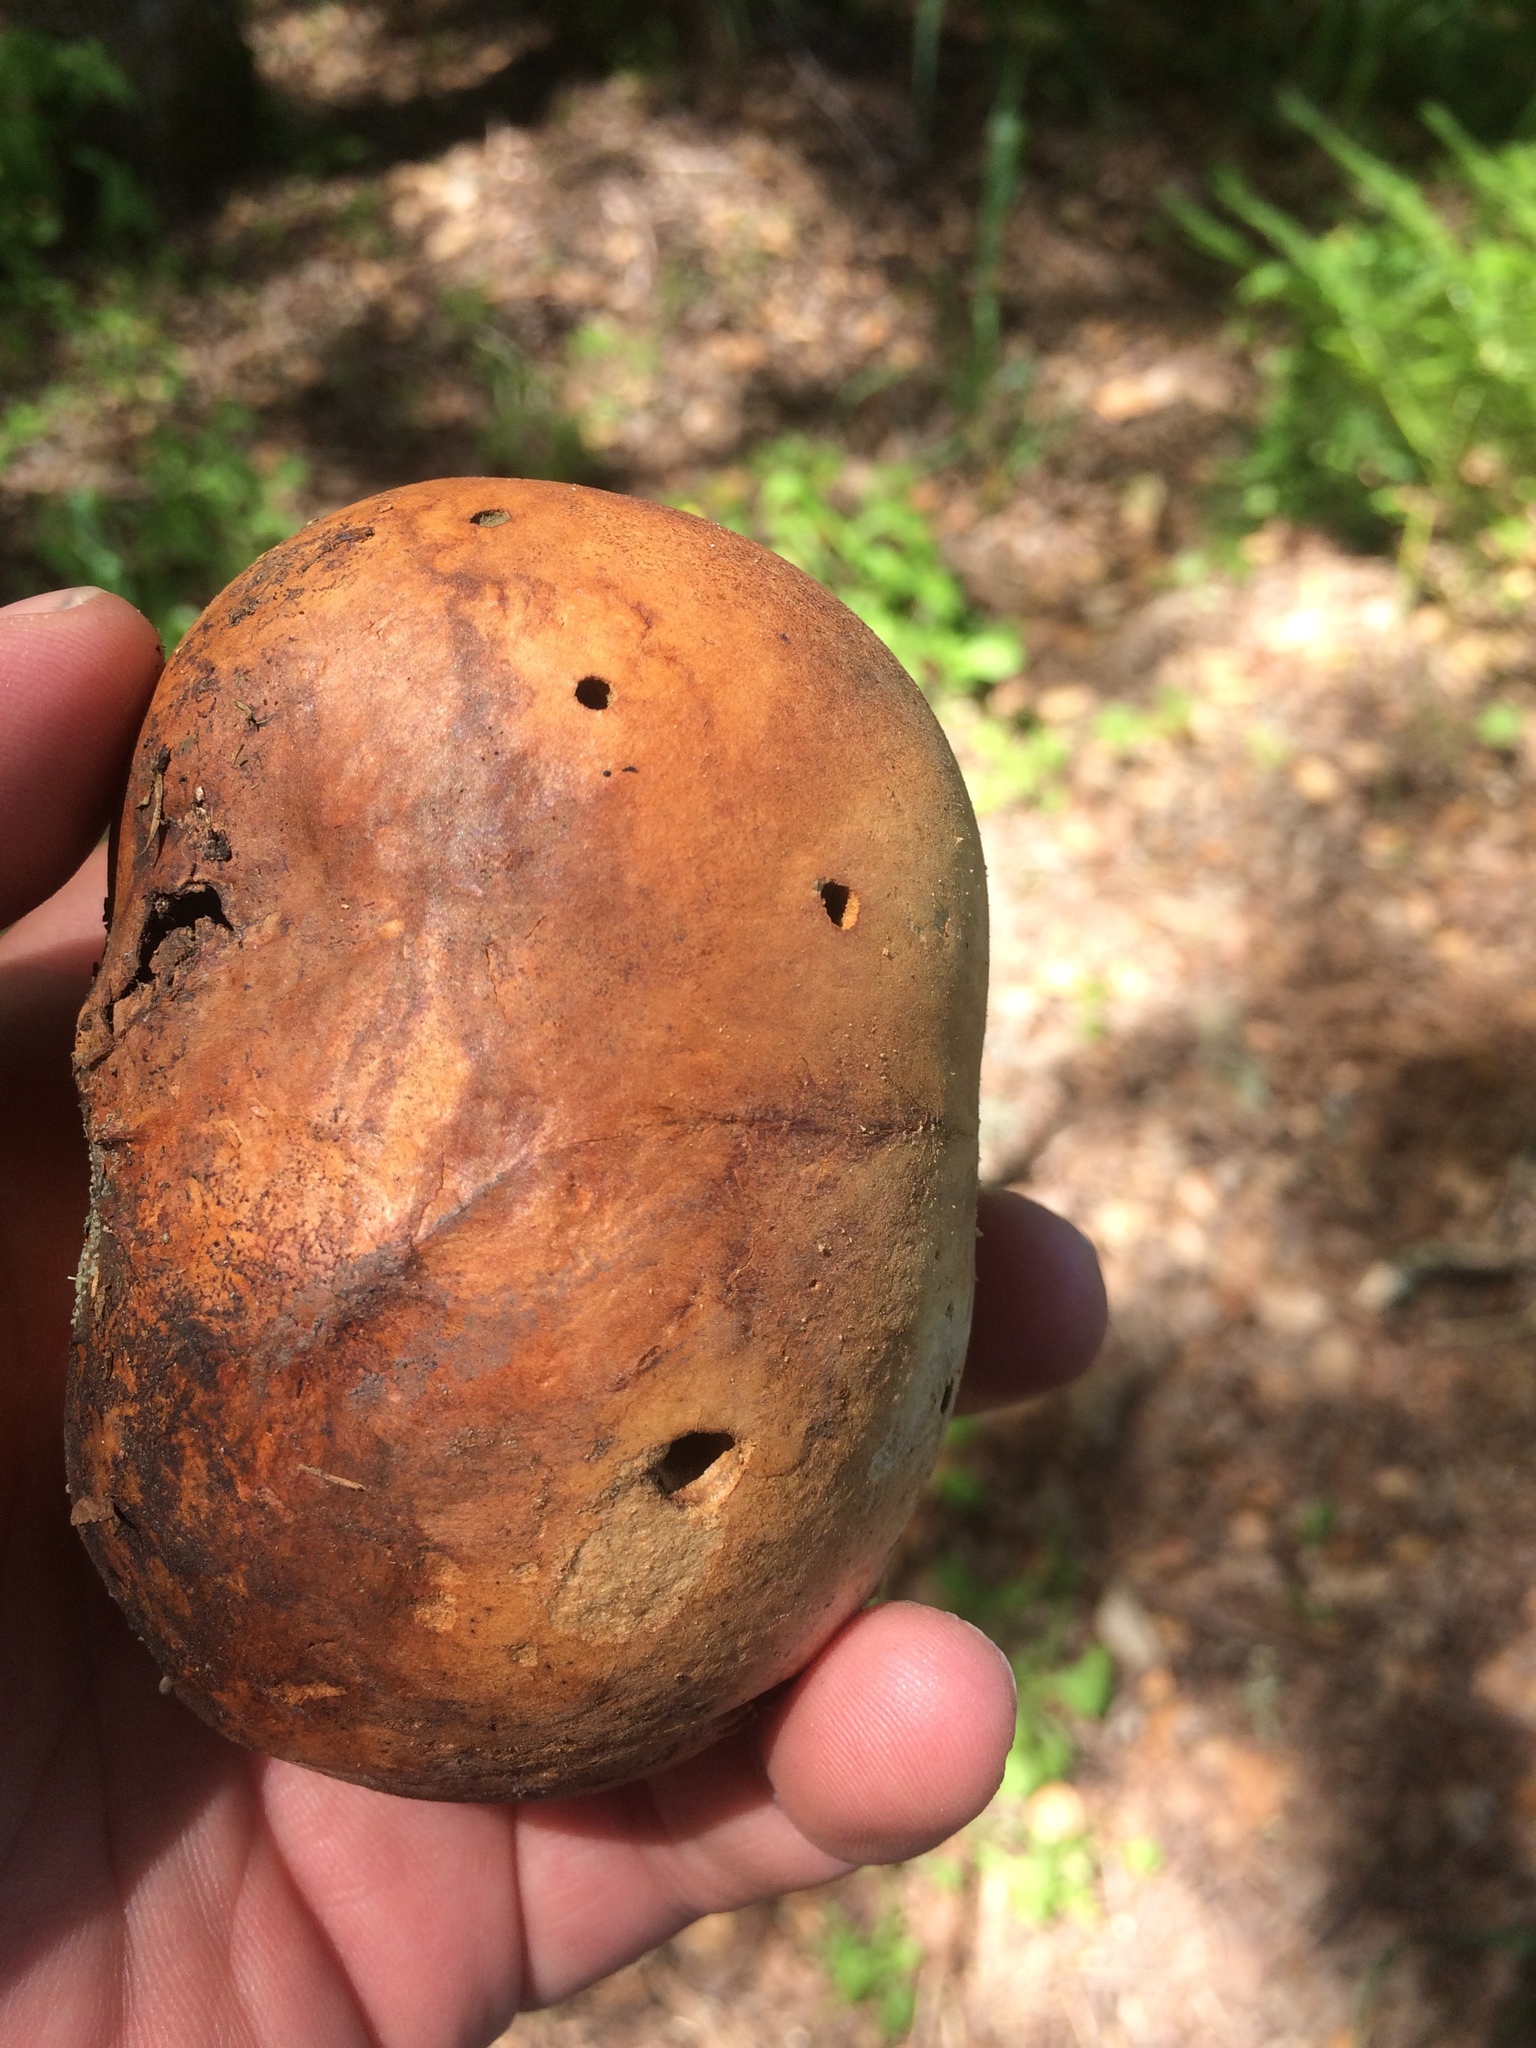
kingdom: Animalia
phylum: Arthropoda
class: Insecta
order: Hymenoptera
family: Cynipidae
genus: Andricus
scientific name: Andricus quercuscalifornicus
